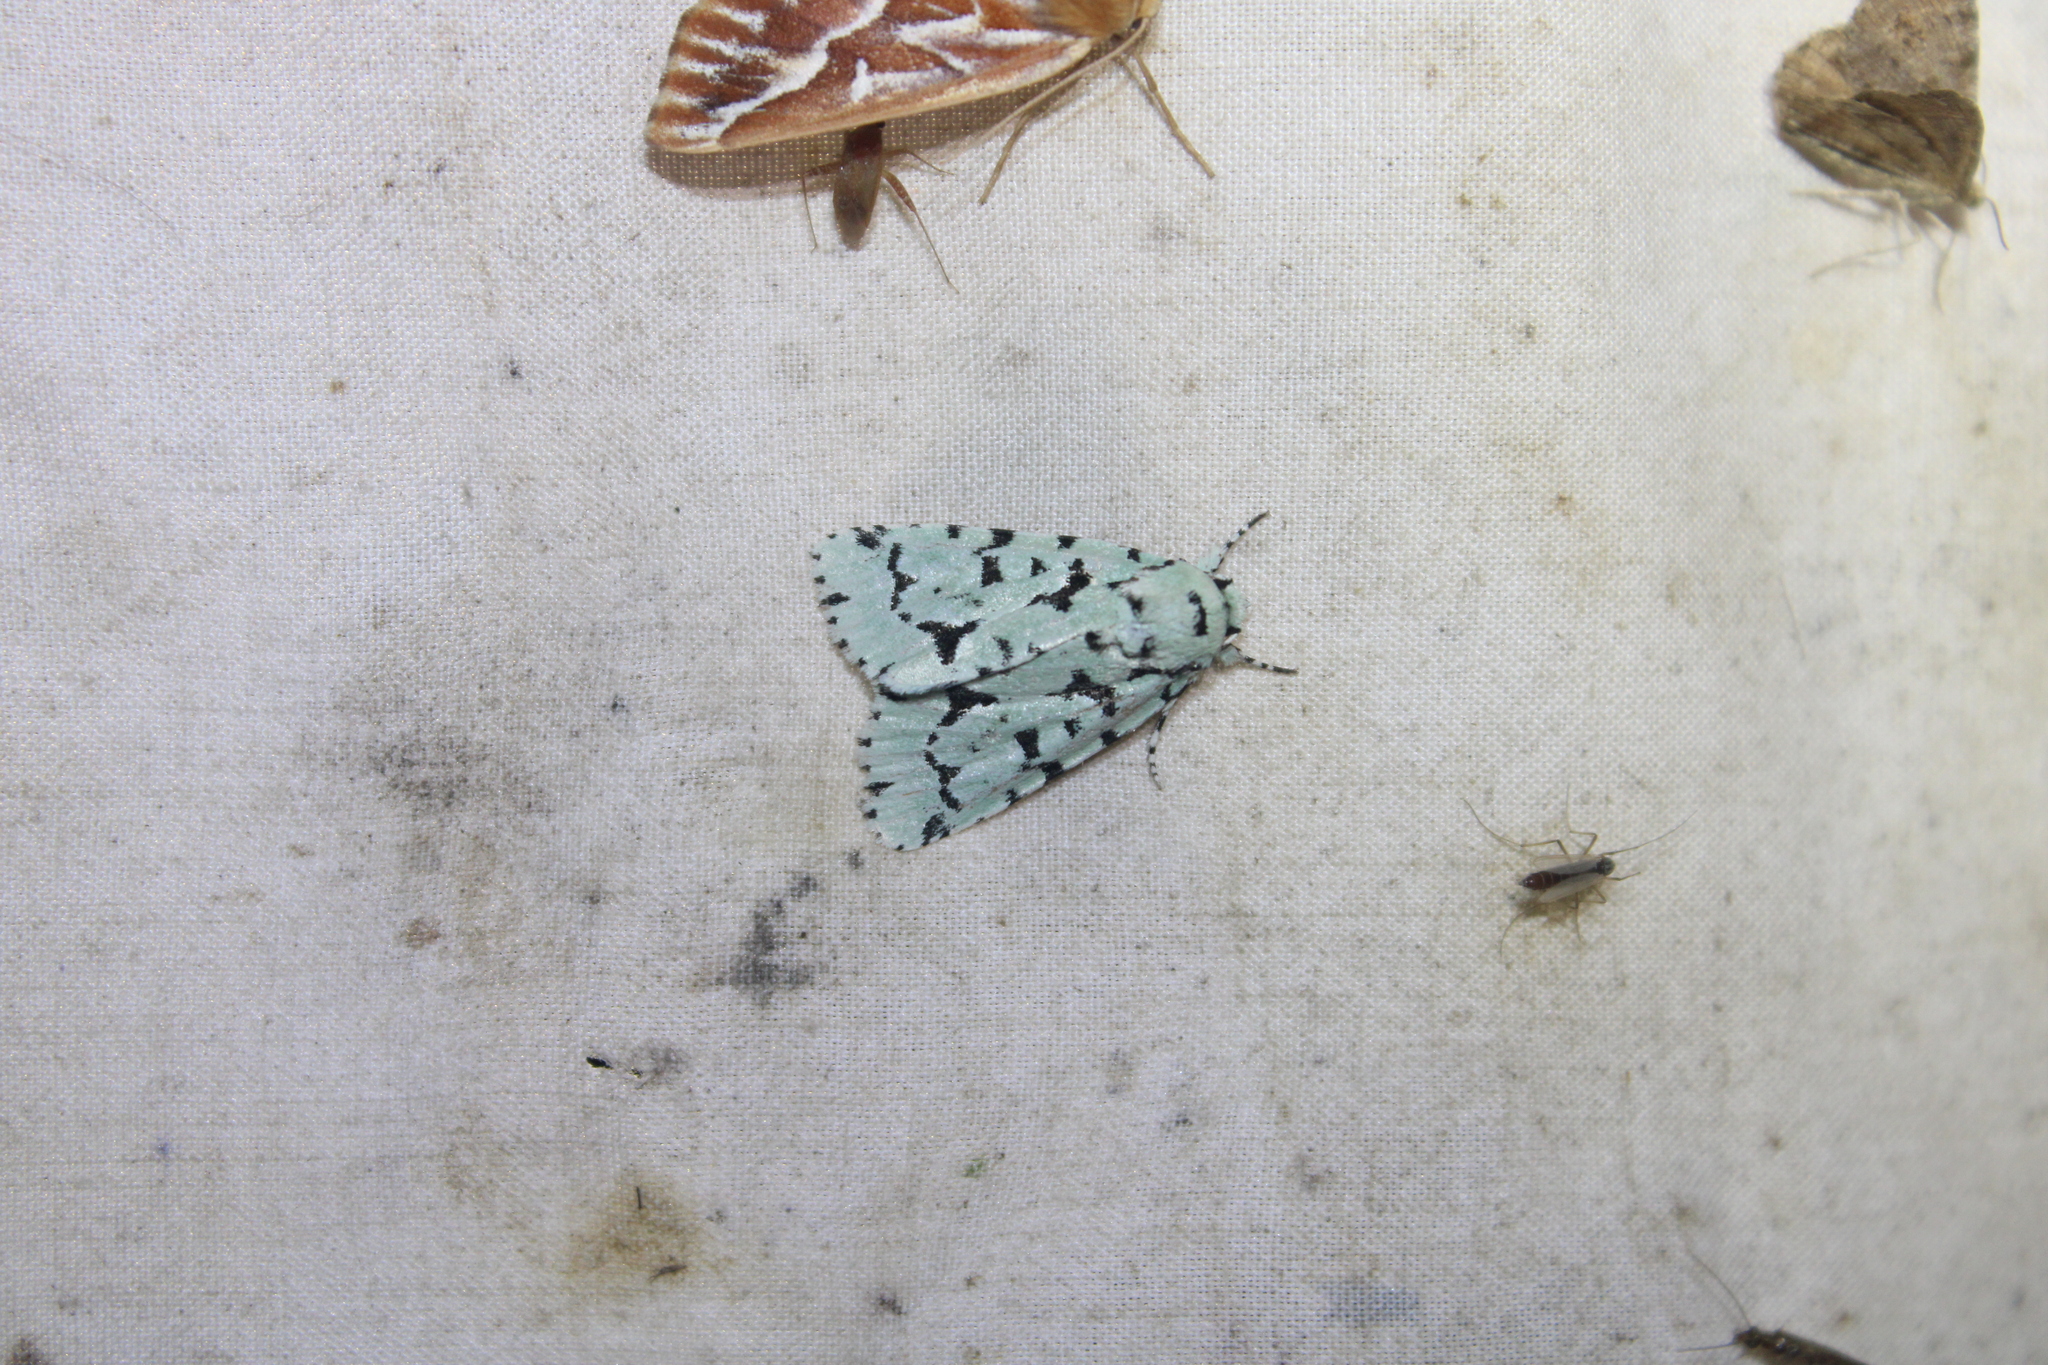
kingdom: Animalia
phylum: Arthropoda
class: Insecta
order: Lepidoptera
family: Noctuidae
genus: Acronicta
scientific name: Acronicta fallax
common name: Green marvel
